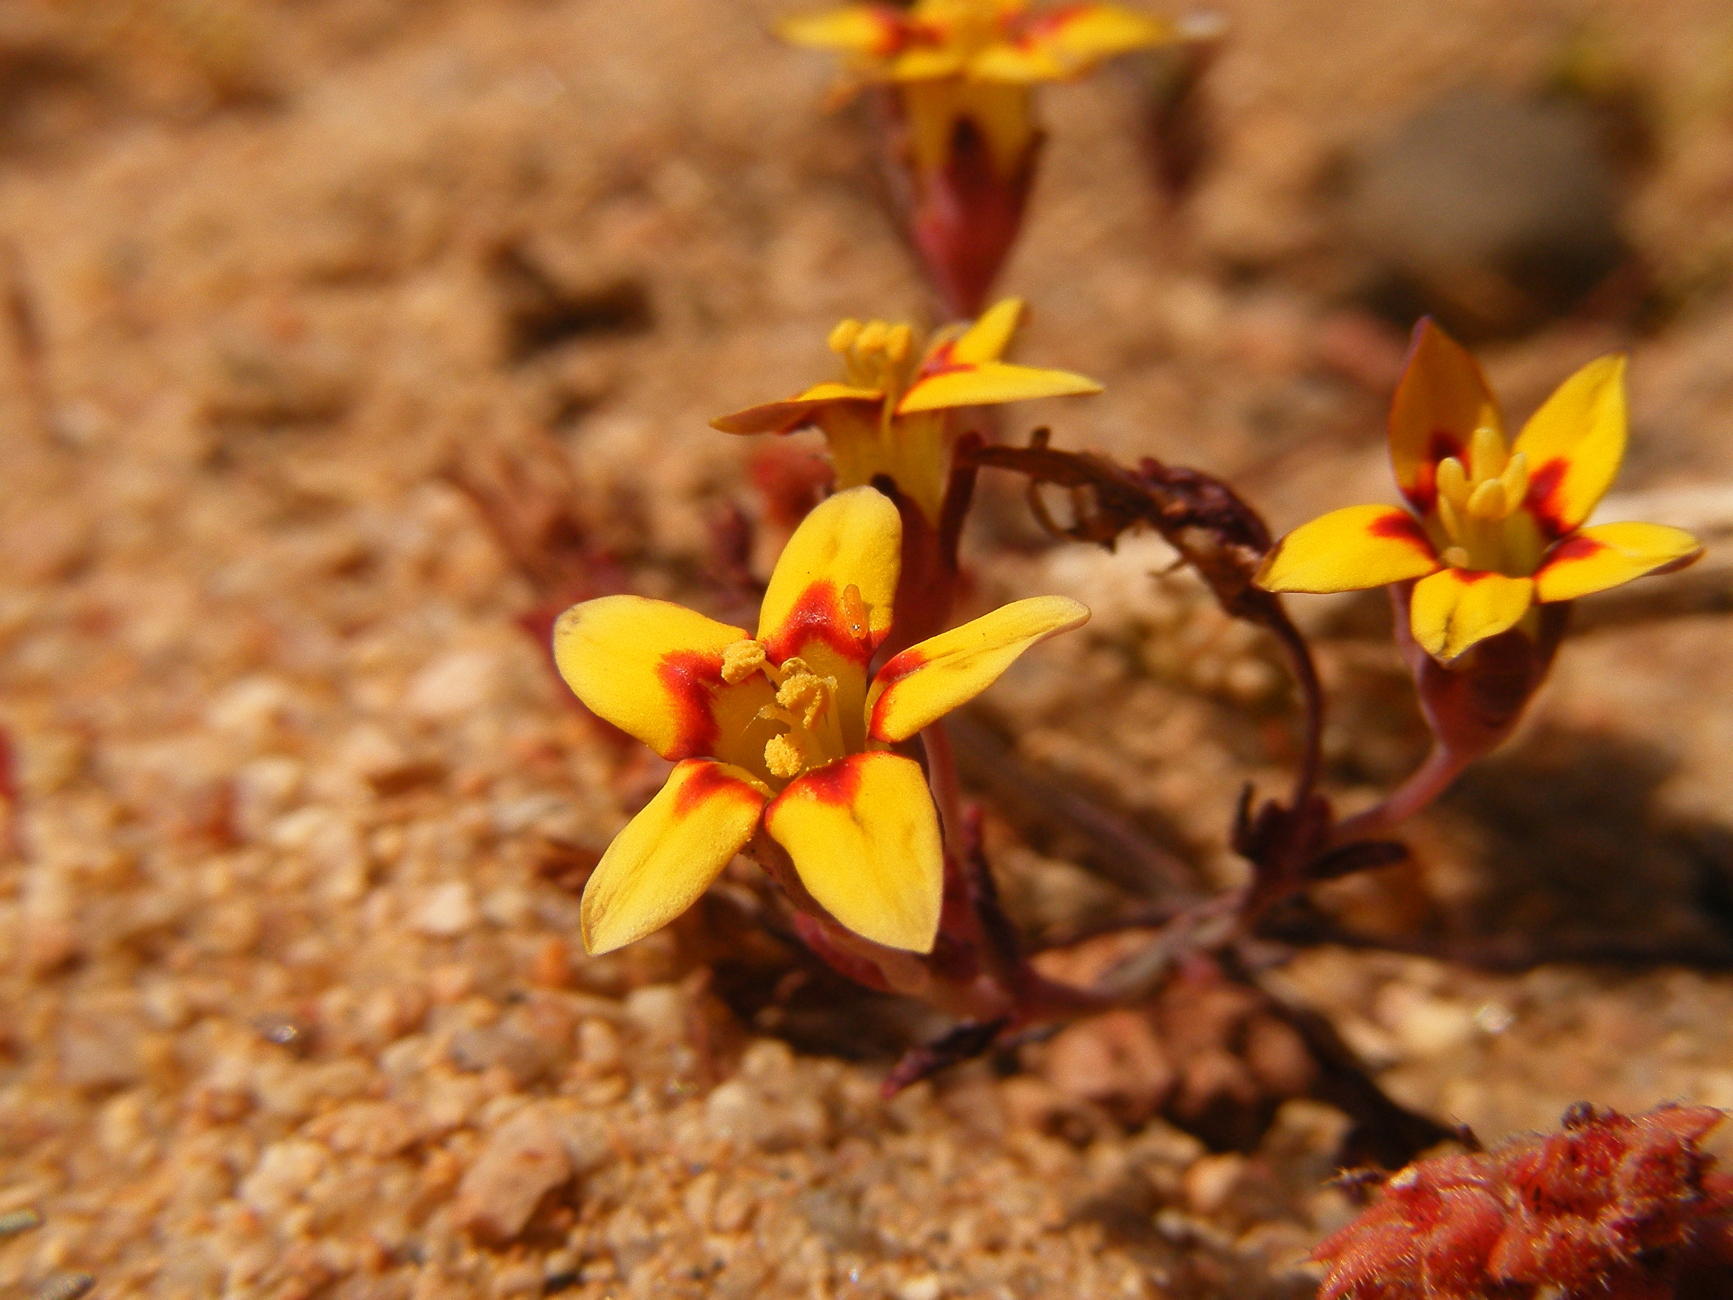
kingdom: Plantae
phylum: Tracheophyta
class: Magnoliopsida
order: Saxifragales
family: Crassulaceae
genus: Crassula
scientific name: Crassula dichotoma
